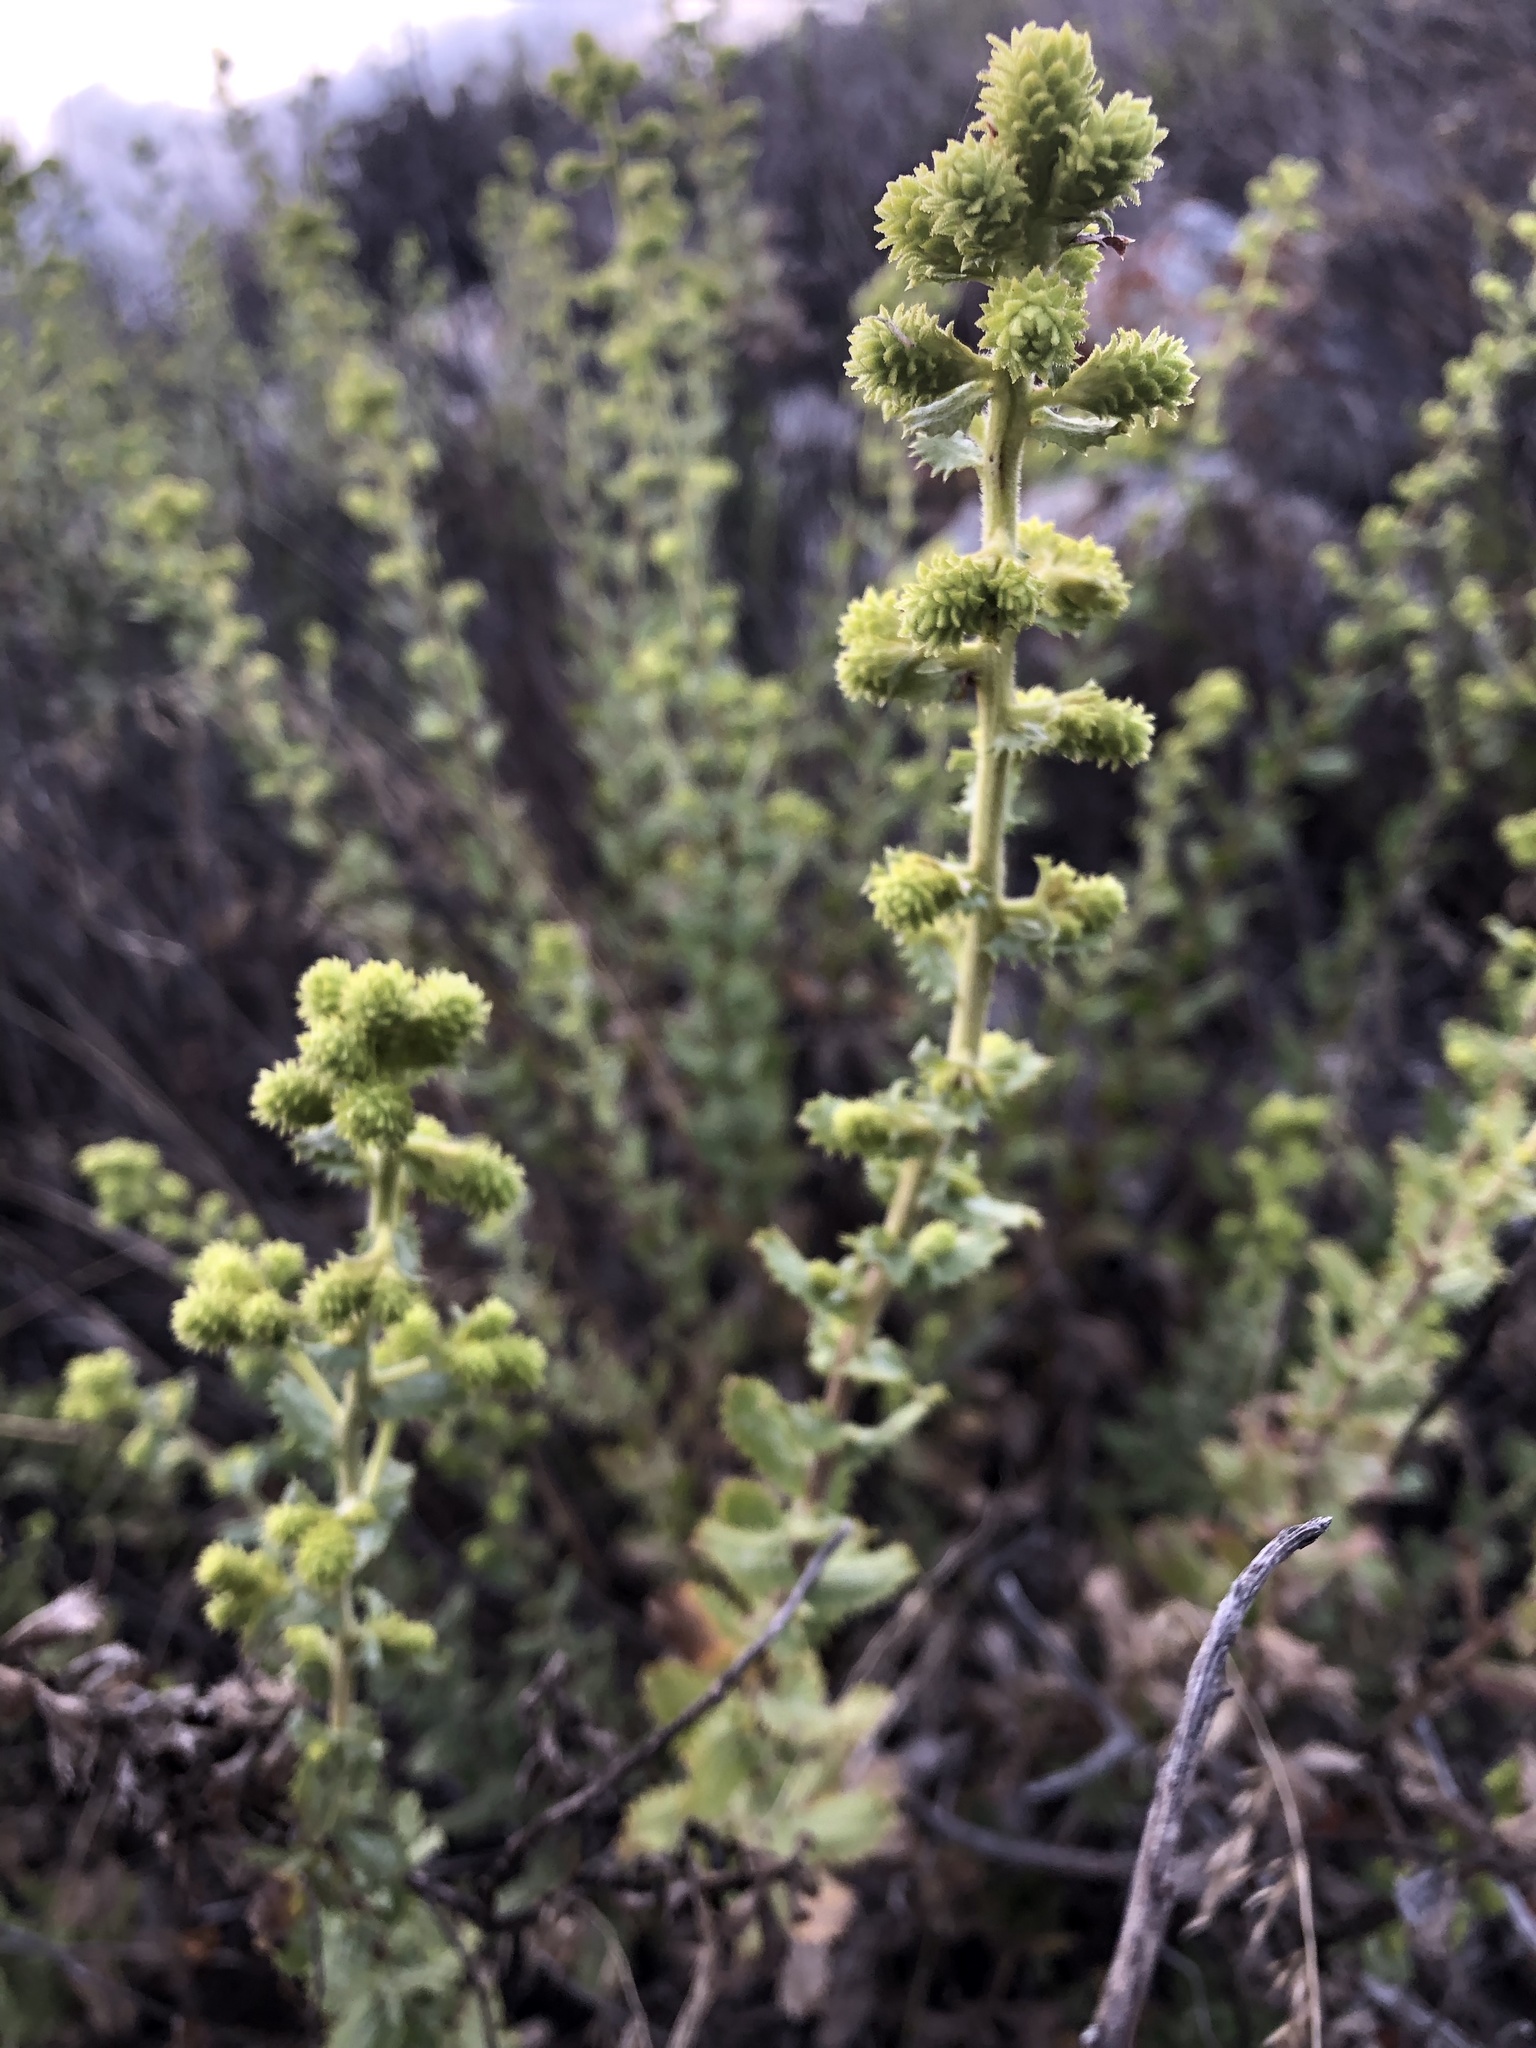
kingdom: Plantae
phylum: Tracheophyta
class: Magnoliopsida
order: Asterales
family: Asteraceae
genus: Hazardia
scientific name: Hazardia squarrosa
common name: Saw-tooth goldenbush
